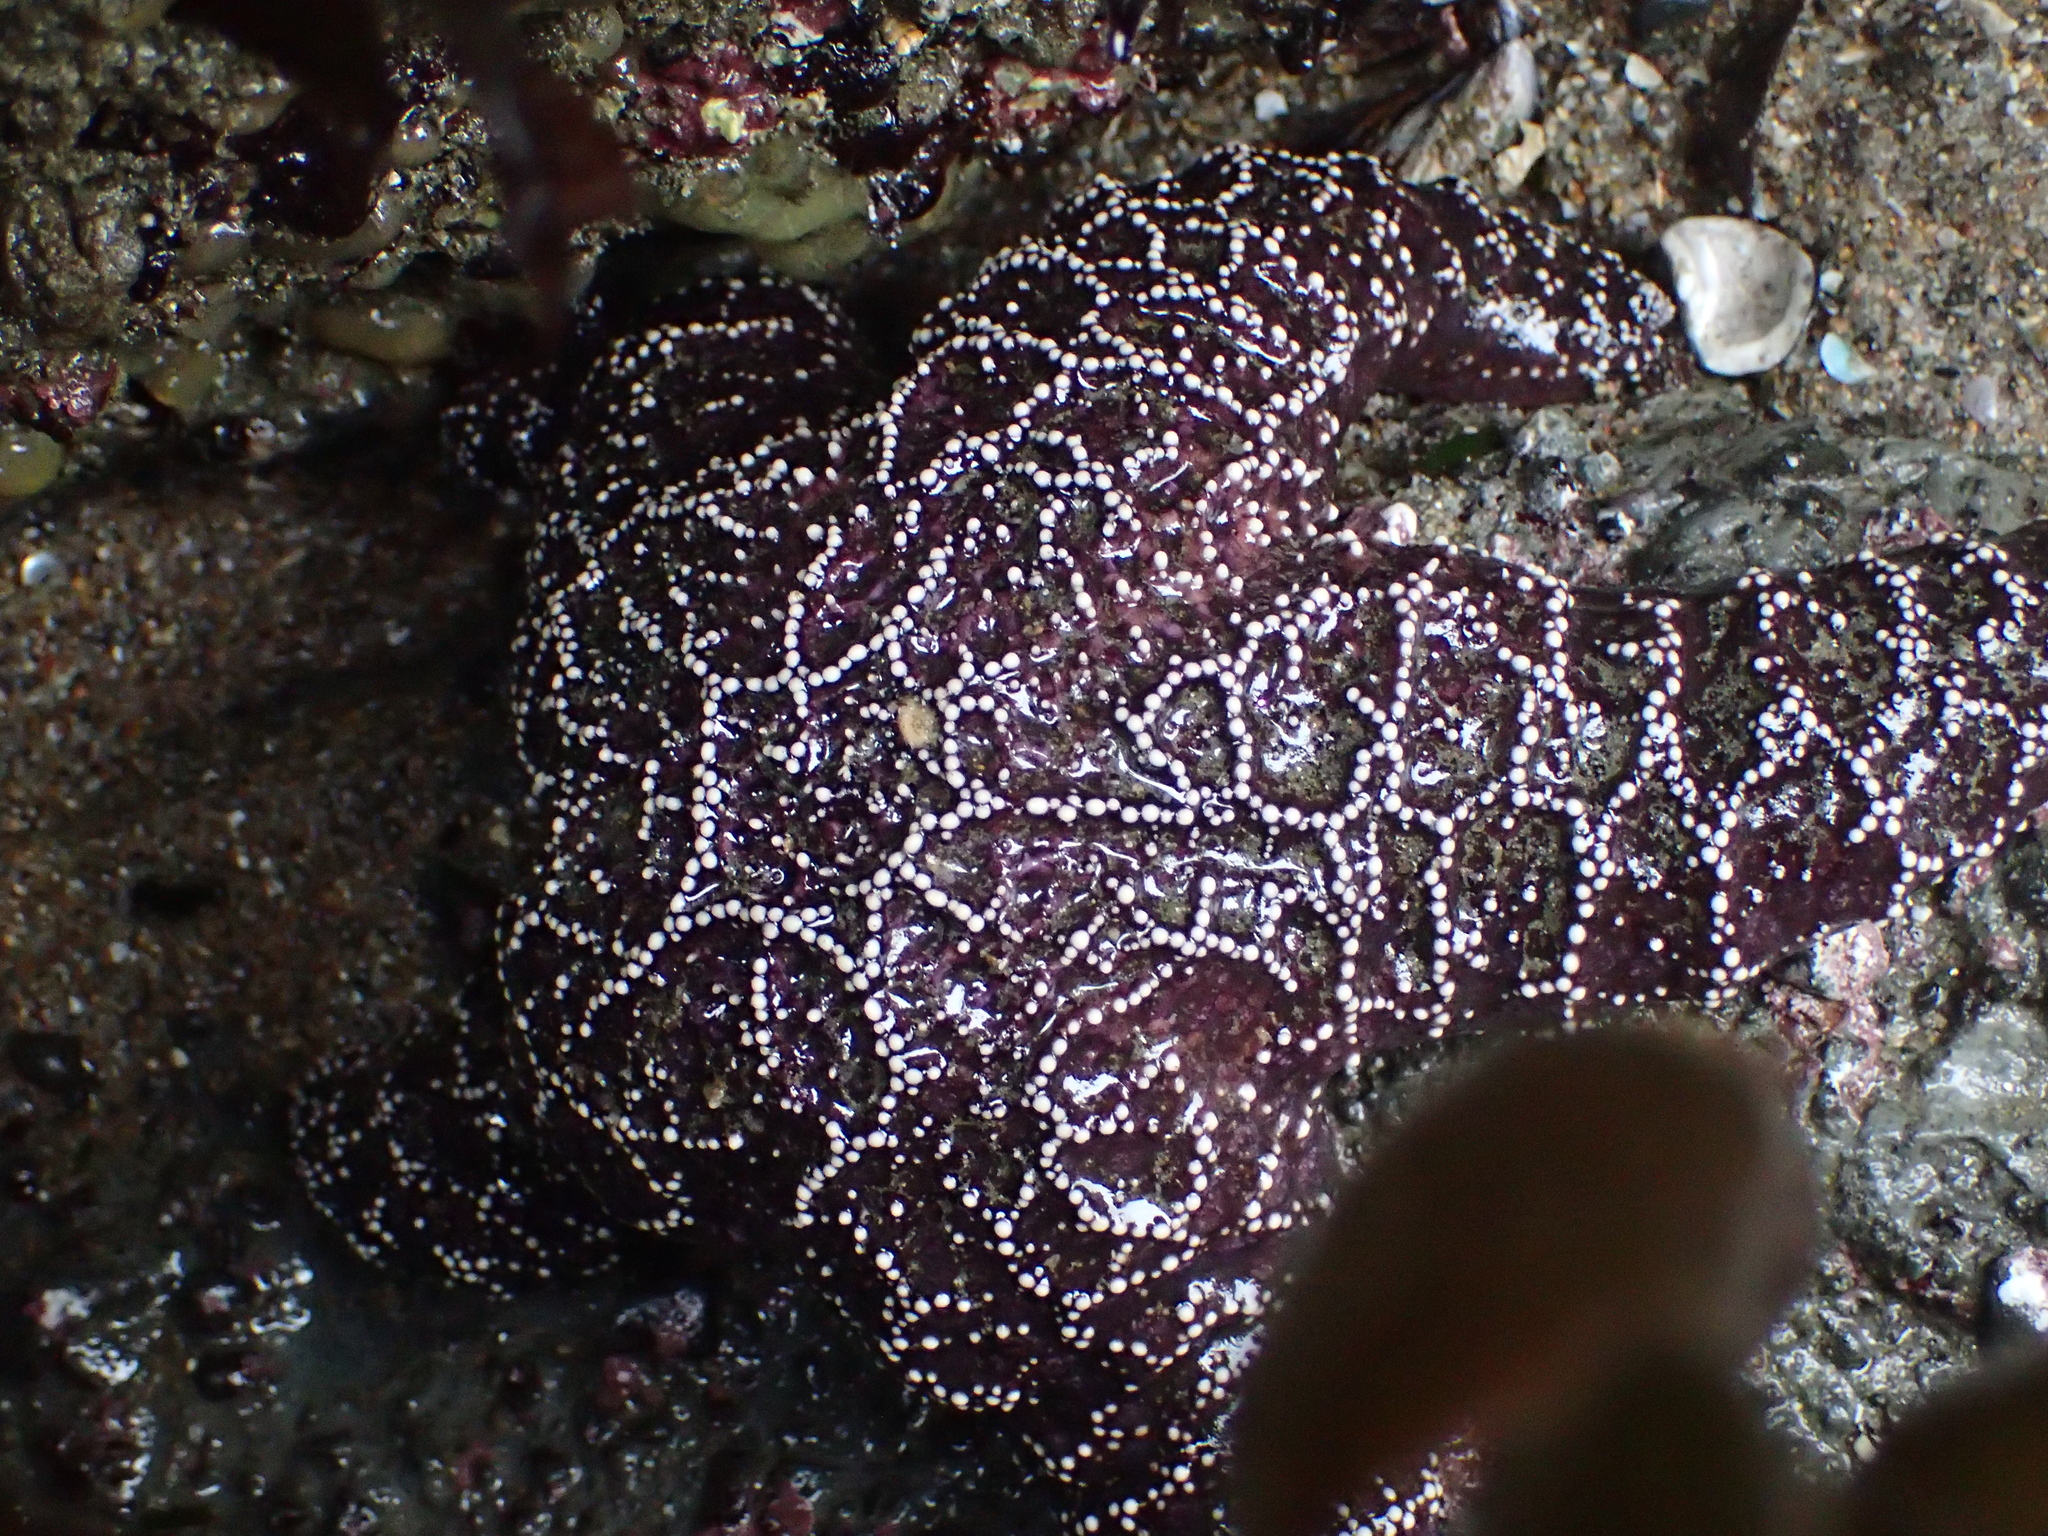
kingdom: Animalia
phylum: Echinodermata
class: Asteroidea
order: Forcipulatida
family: Asteriidae
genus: Pisaster
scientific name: Pisaster ochraceus
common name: Ochre stars
